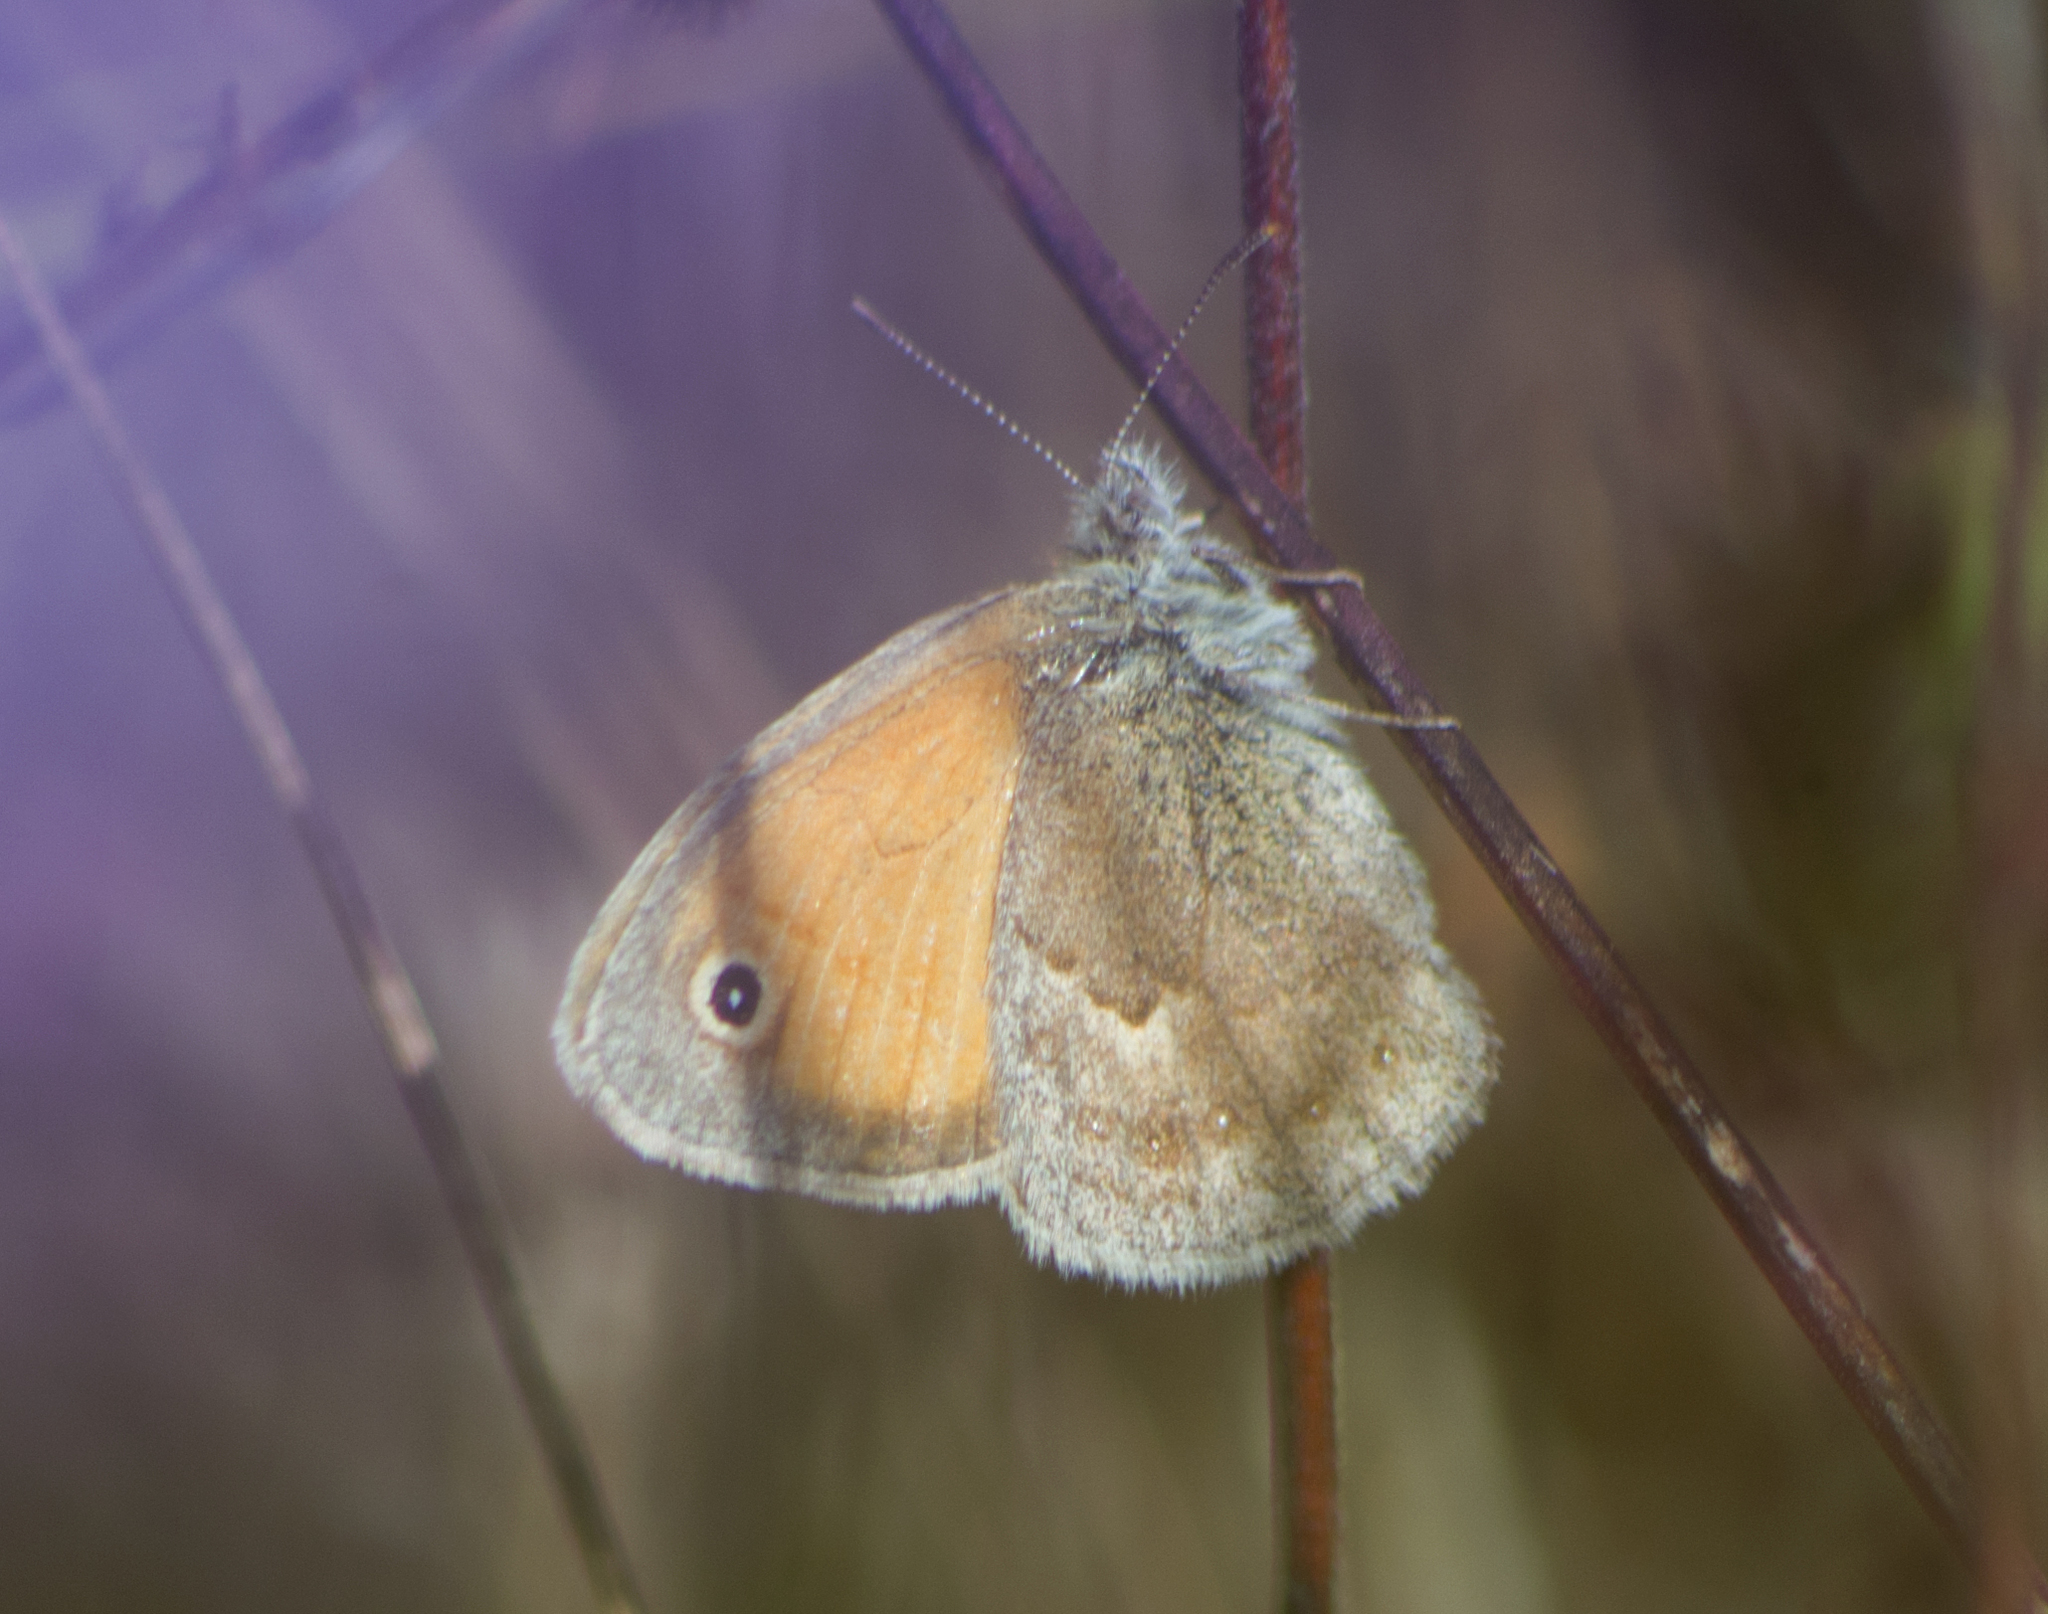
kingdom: Animalia
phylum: Arthropoda
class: Insecta
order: Lepidoptera
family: Nymphalidae
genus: Coenonympha
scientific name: Coenonympha pamphilus
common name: Small heath
